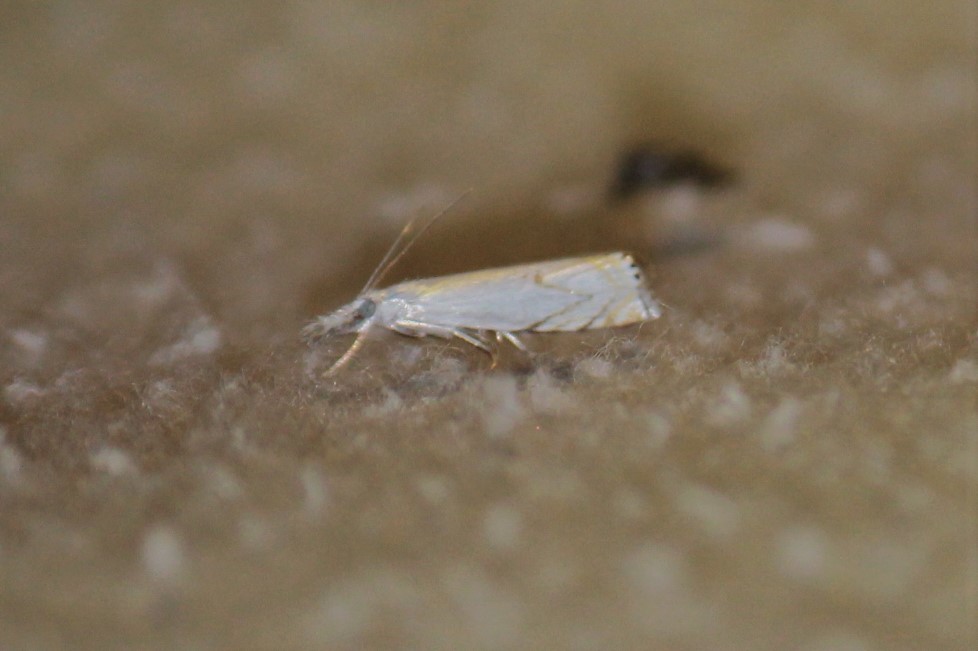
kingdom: Animalia
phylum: Arthropoda
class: Insecta
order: Lepidoptera
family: Crambidae
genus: Crambus
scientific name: Crambus albellus
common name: Small white grass-veneer
